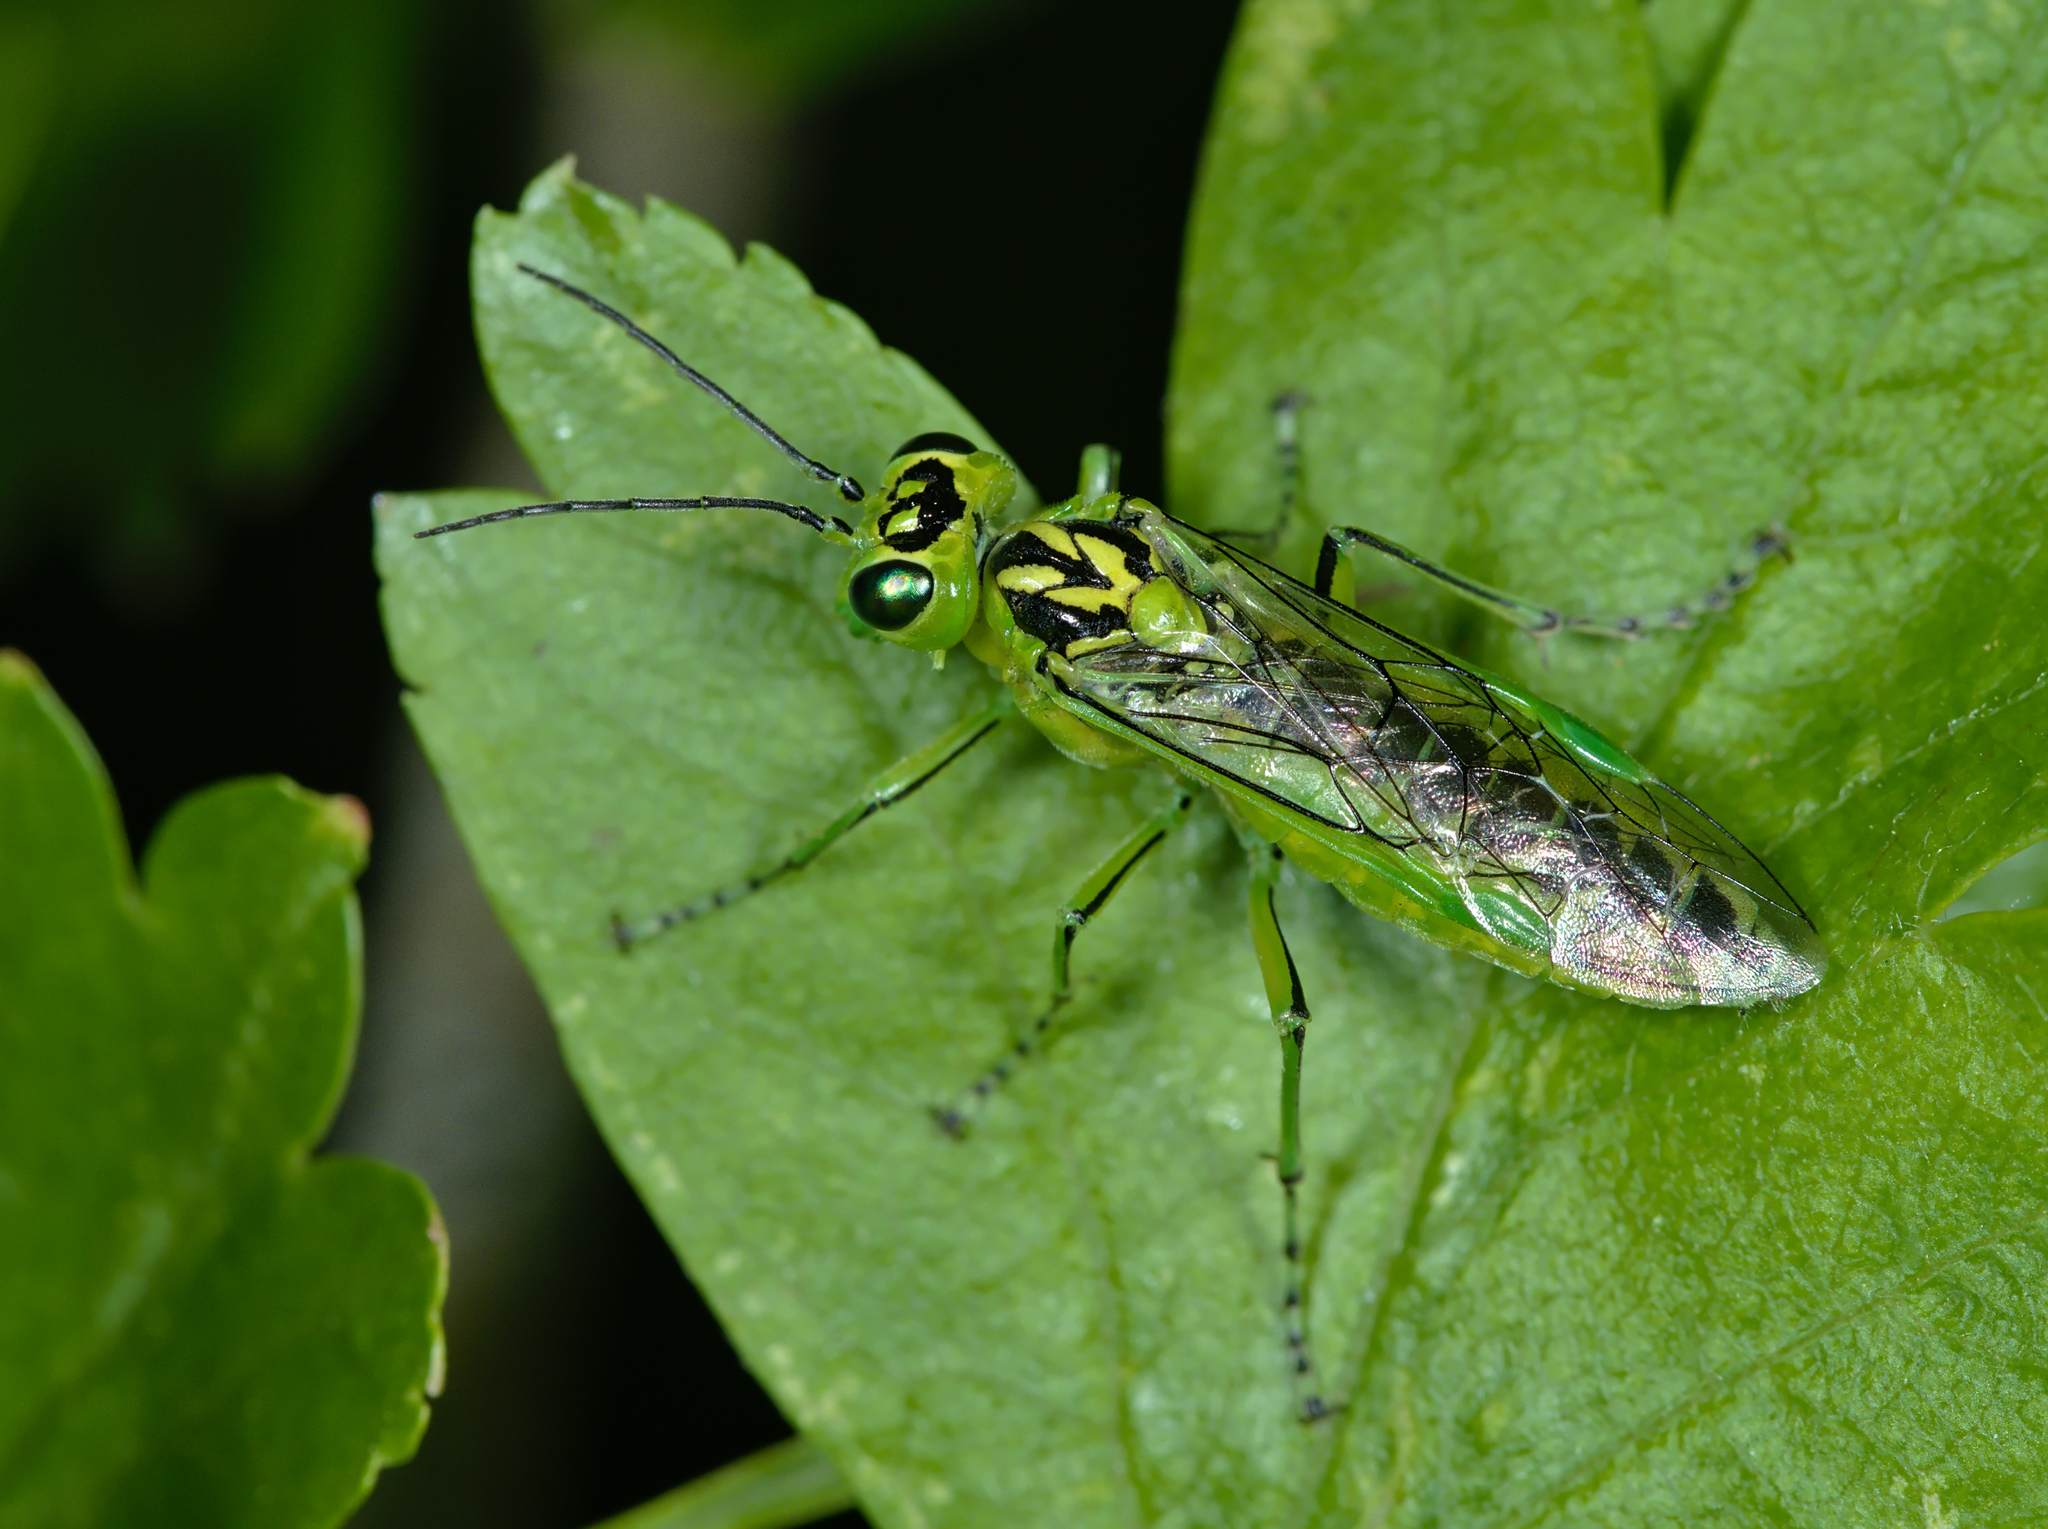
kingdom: Animalia
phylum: Arthropoda
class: Insecta
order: Hymenoptera
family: Tenthredinidae
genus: Rhogogaster
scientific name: Rhogogaster chlorosoma
